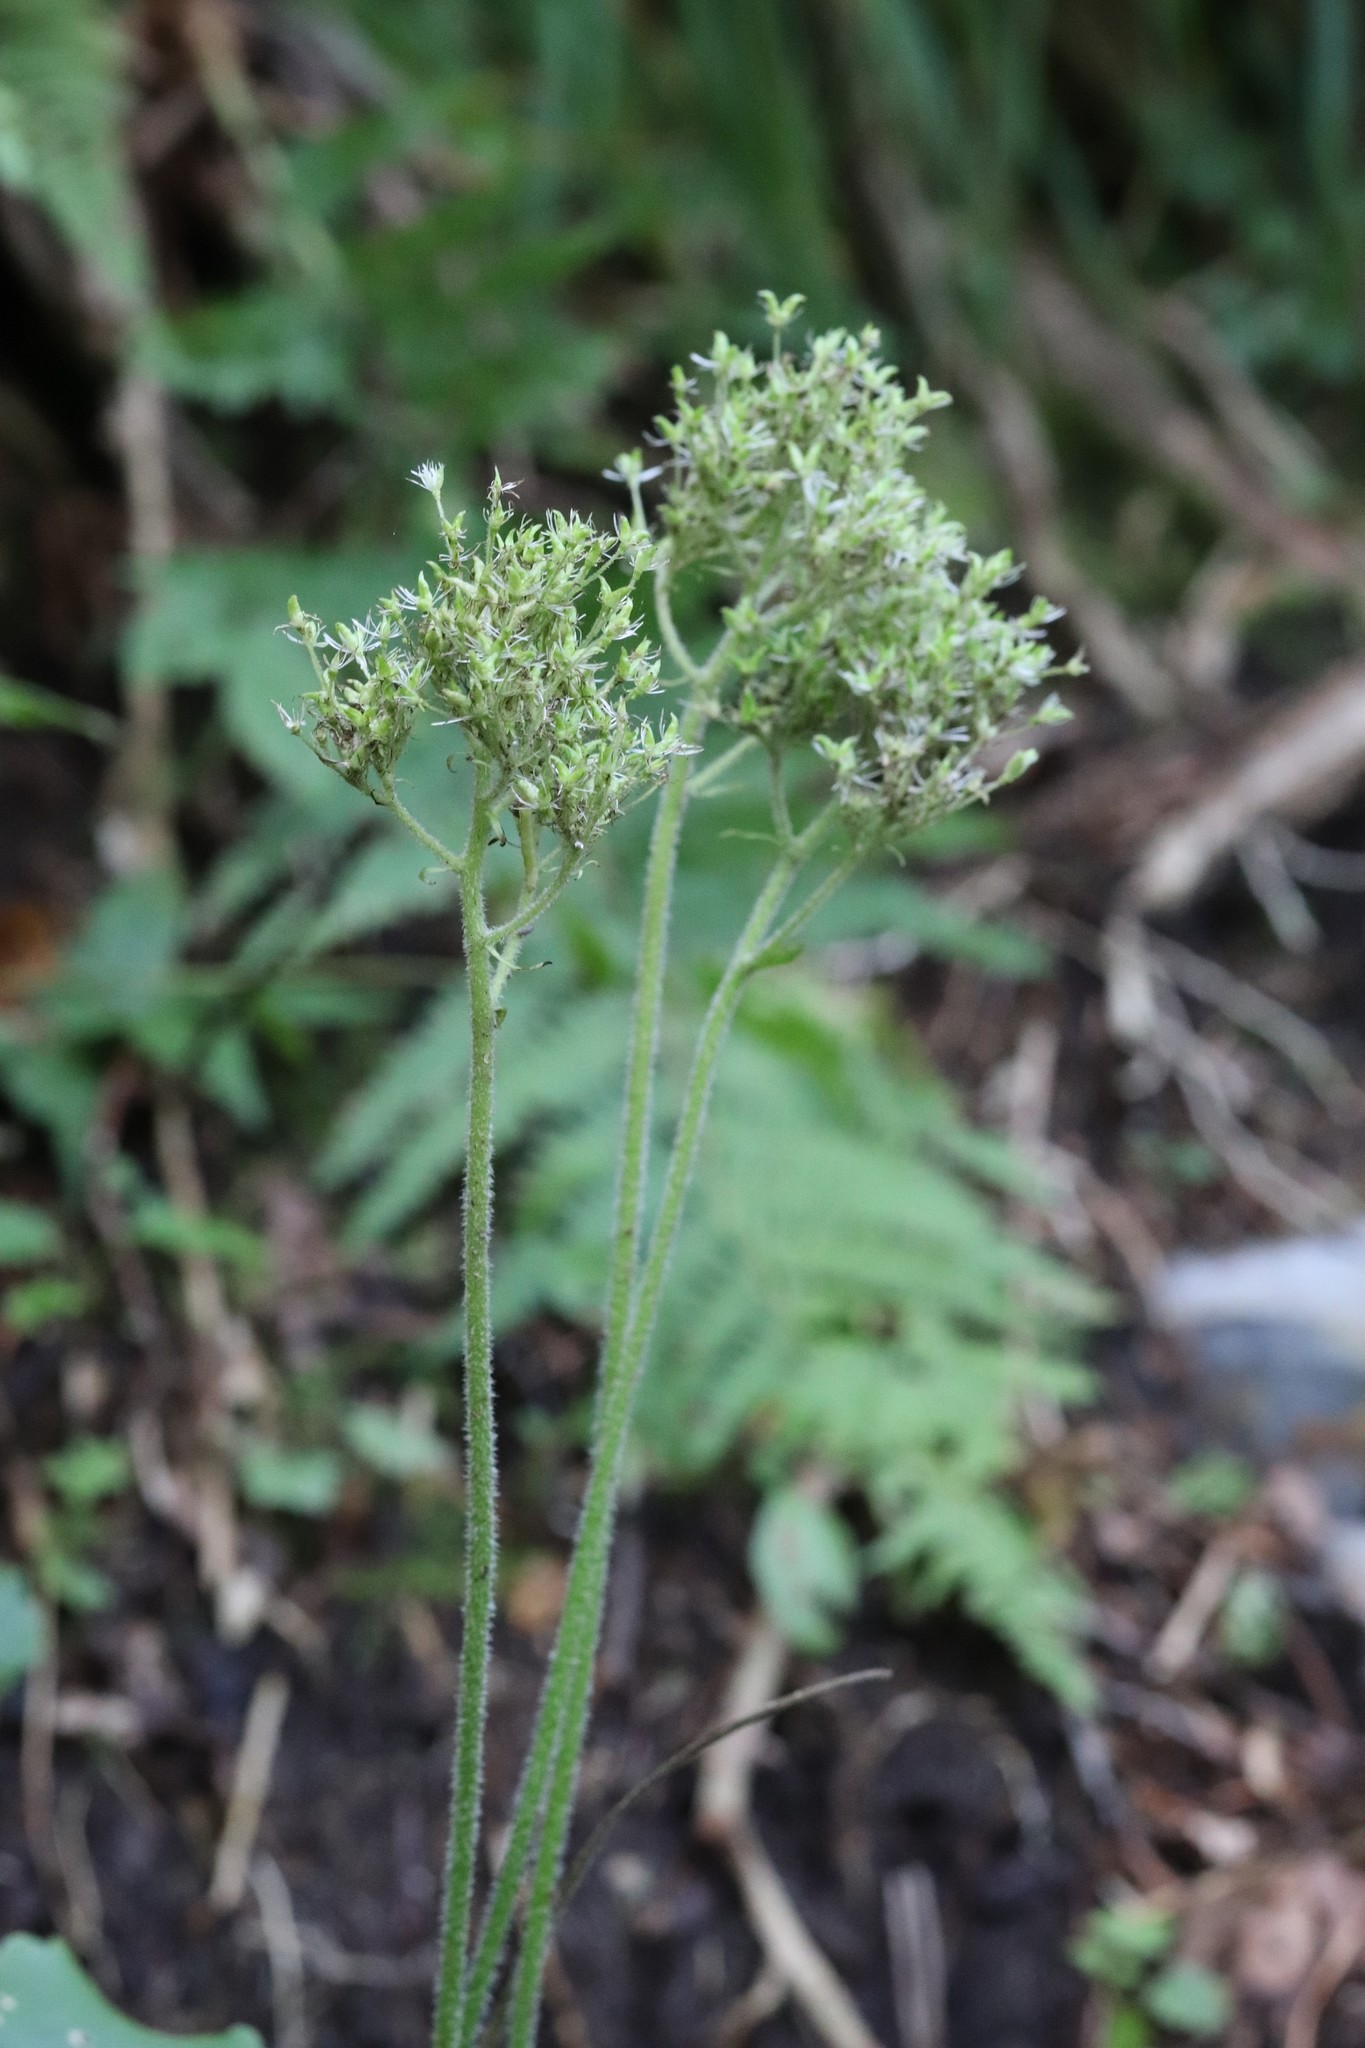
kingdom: Plantae
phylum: Tracheophyta
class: Magnoliopsida
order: Saxifragales
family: Saxifragaceae
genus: Micranthes
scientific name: Micranthes manchuriensis
